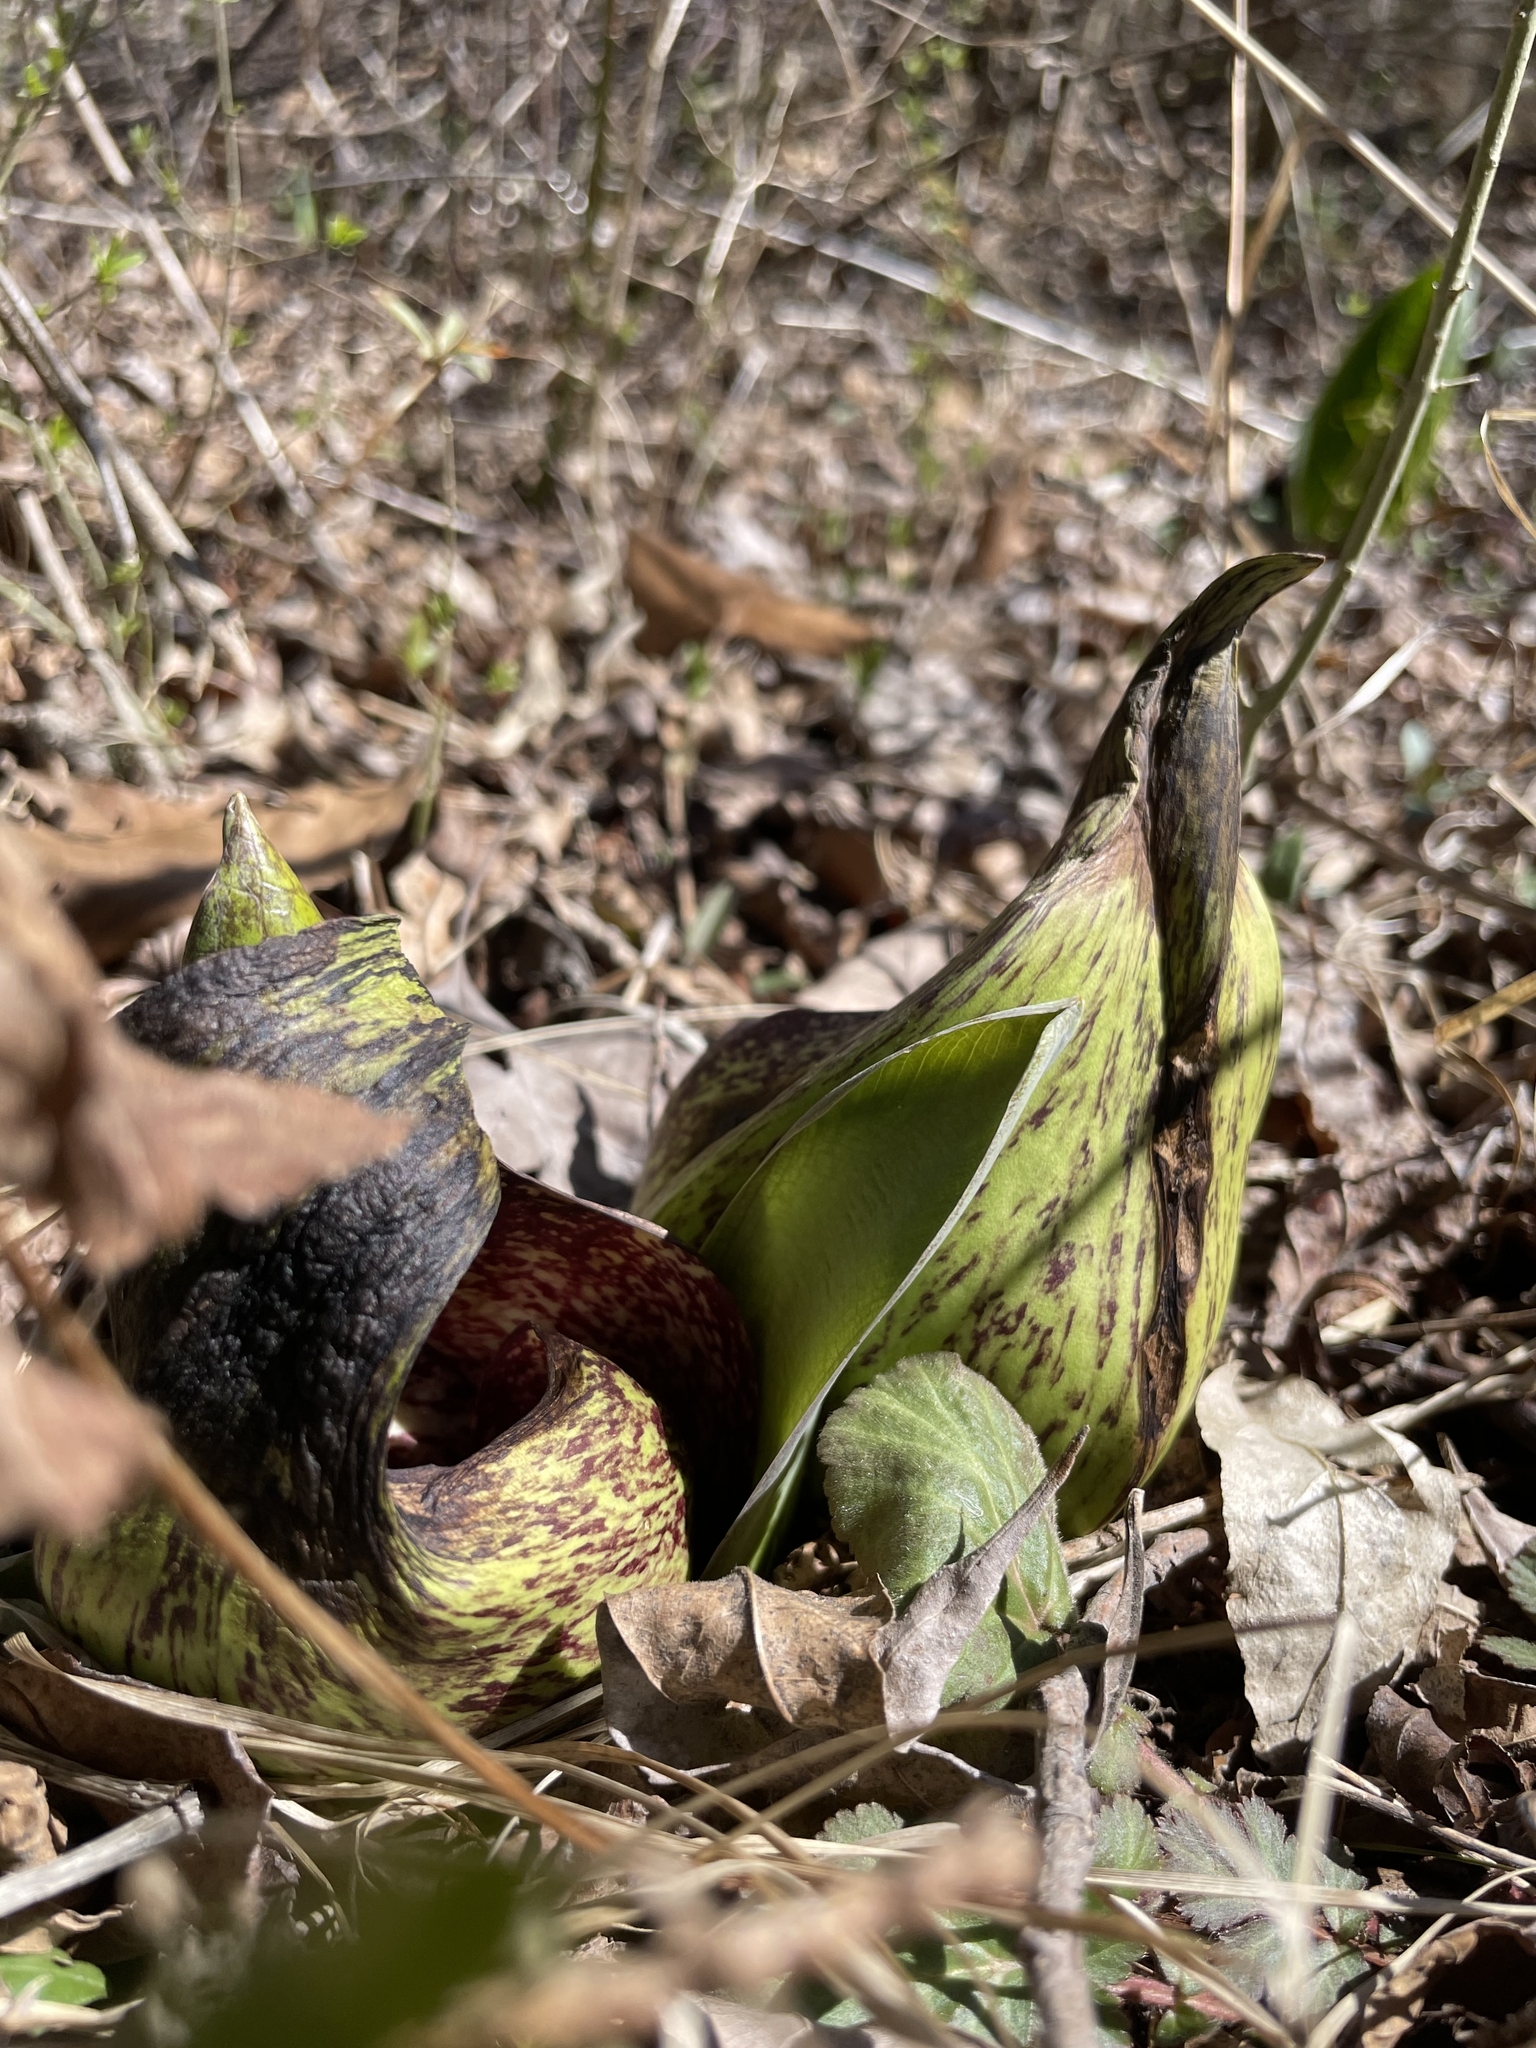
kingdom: Plantae
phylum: Tracheophyta
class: Liliopsida
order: Alismatales
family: Araceae
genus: Symplocarpus
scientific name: Symplocarpus foetidus
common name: Eastern skunk cabbage
